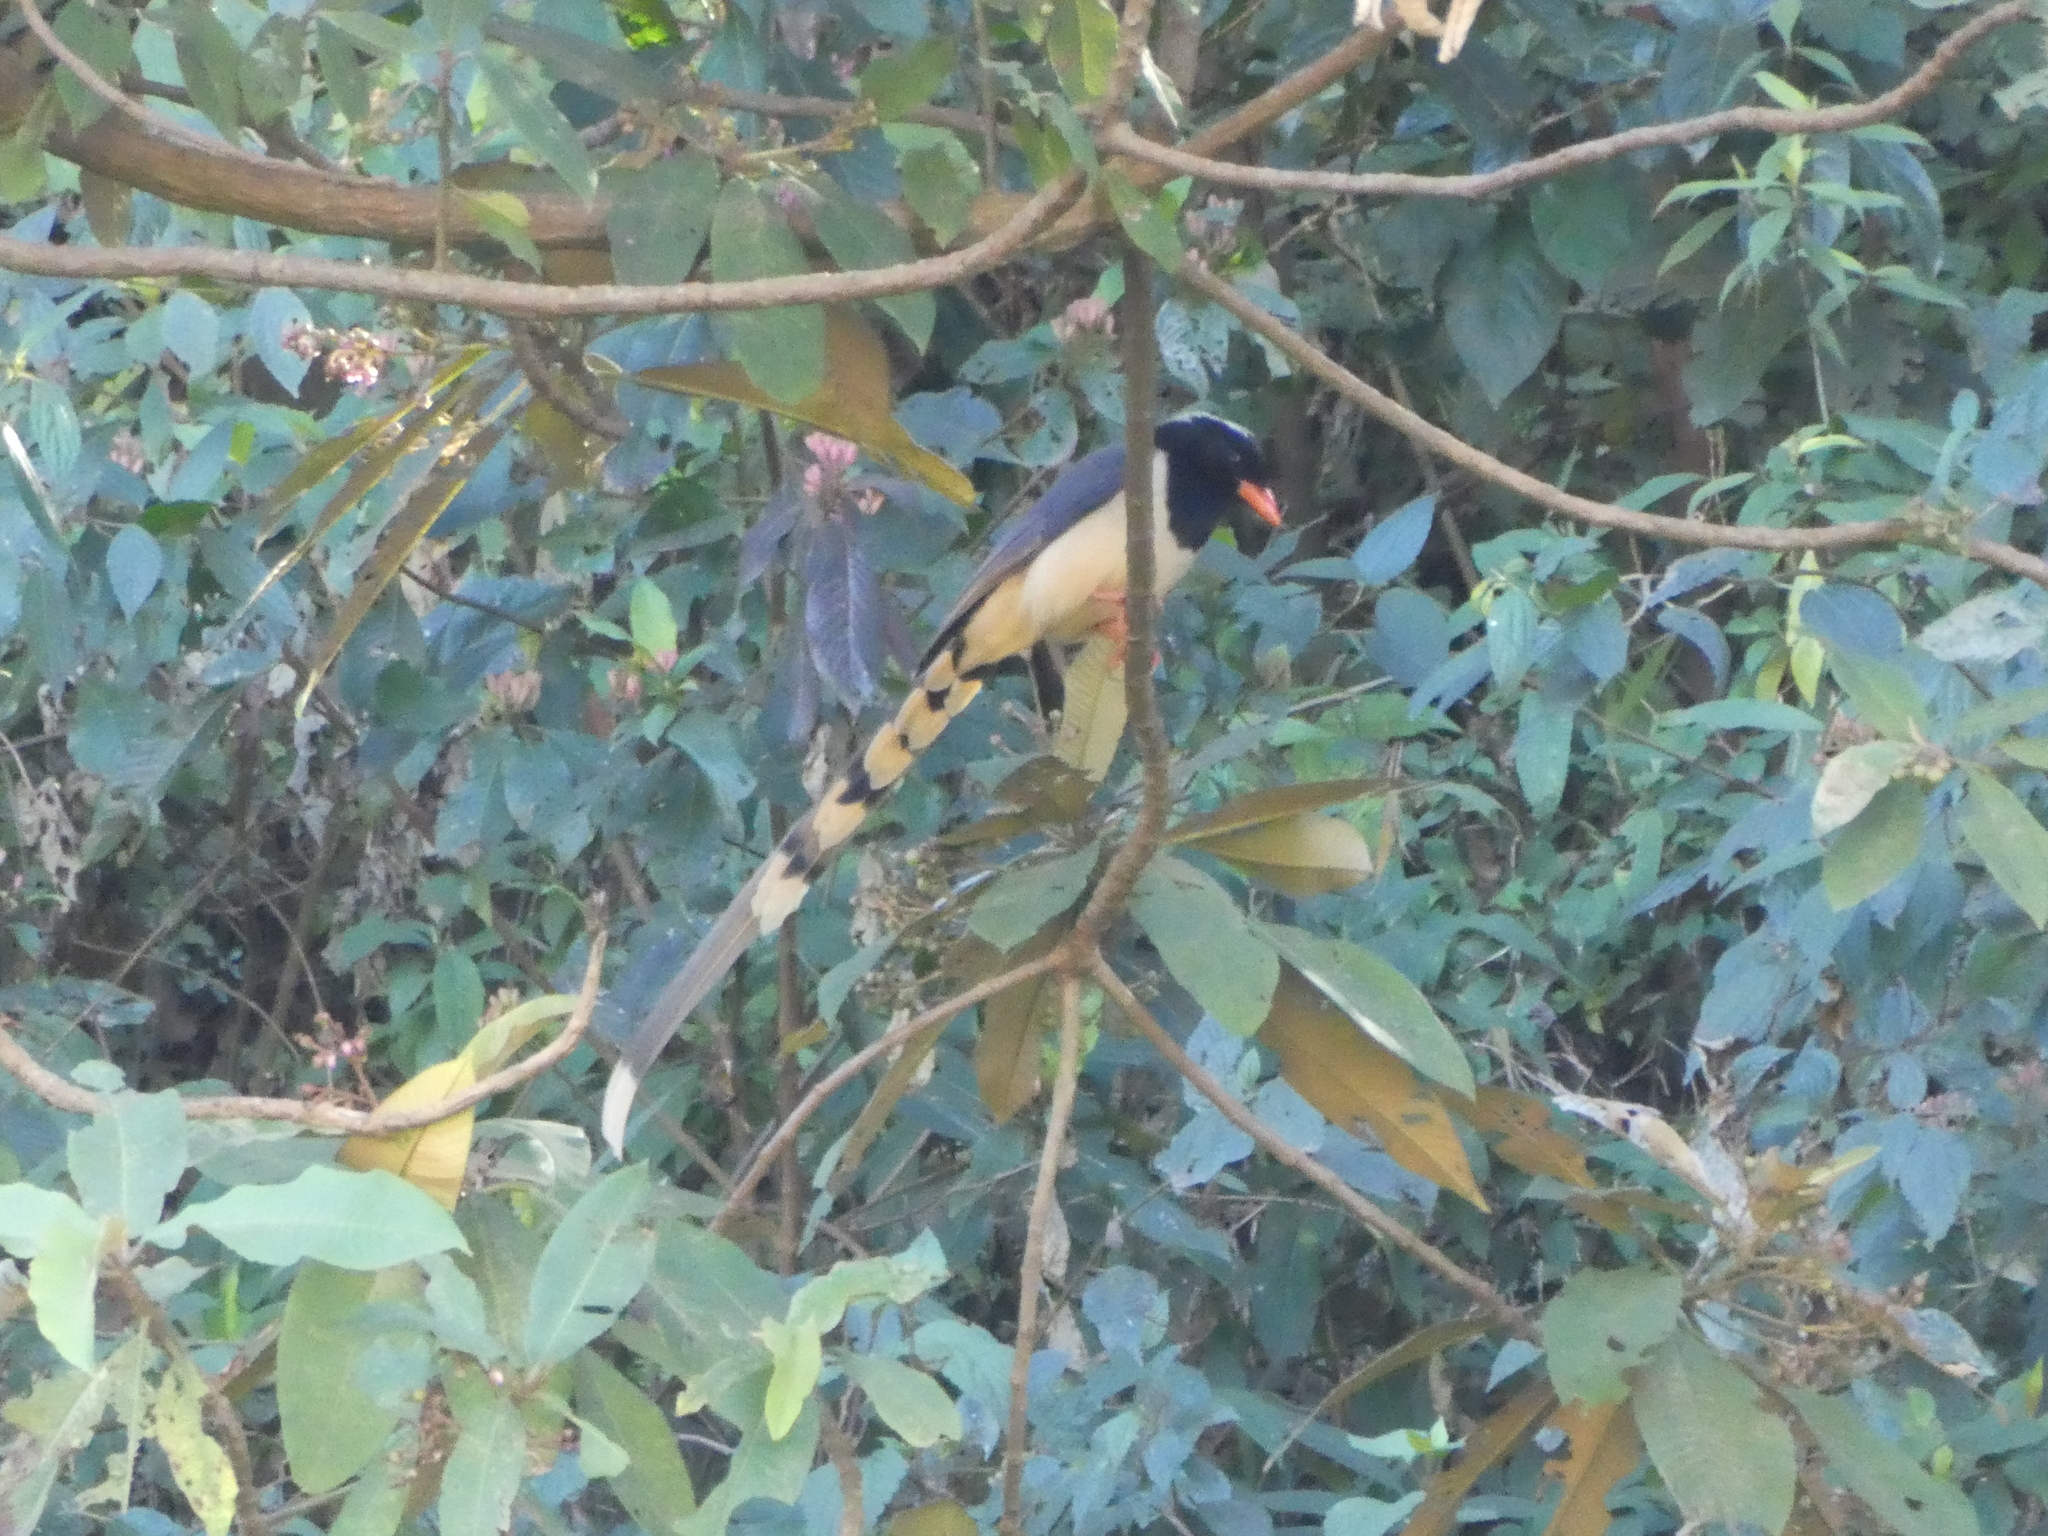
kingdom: Animalia
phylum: Chordata
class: Aves
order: Passeriformes
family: Corvidae
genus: Urocissa
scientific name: Urocissa erythroryncha
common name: Red-billed blue magpie
